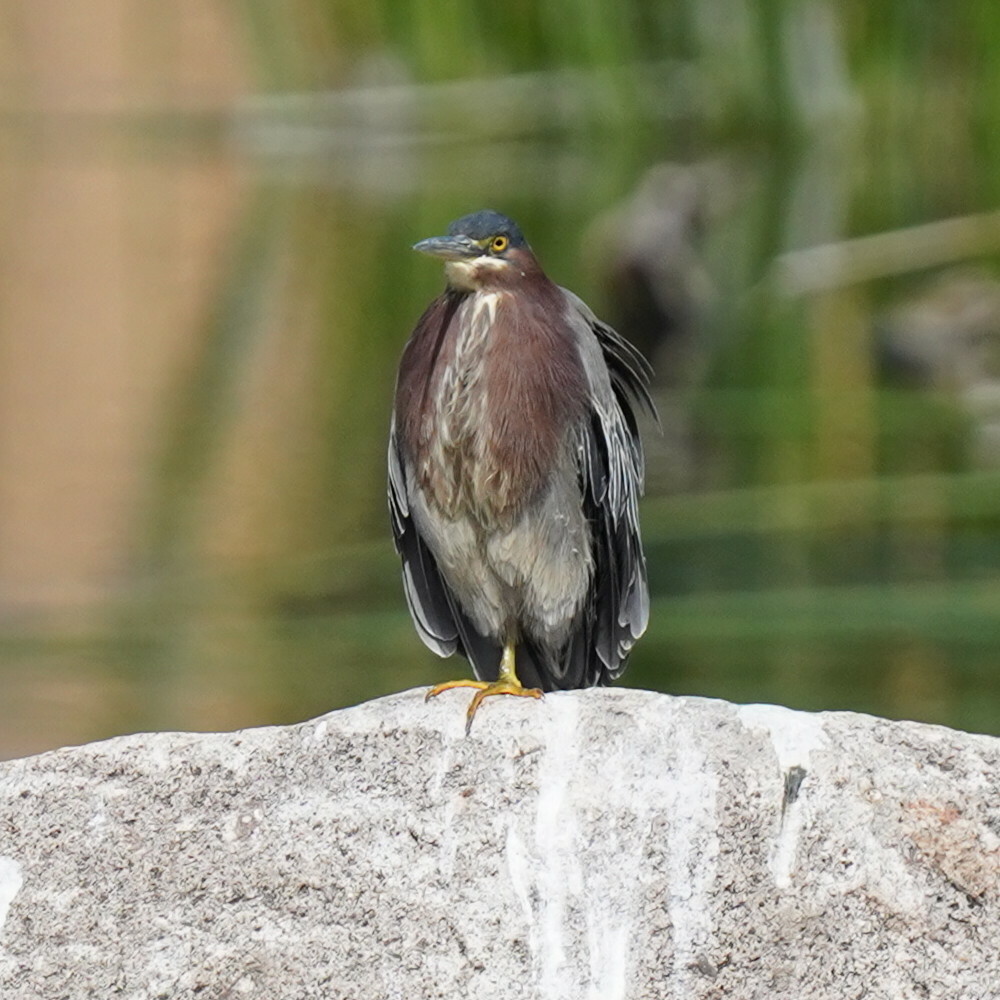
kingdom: Animalia
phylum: Chordata
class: Aves
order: Pelecaniformes
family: Ardeidae
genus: Butorides
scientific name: Butorides virescens
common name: Green heron
